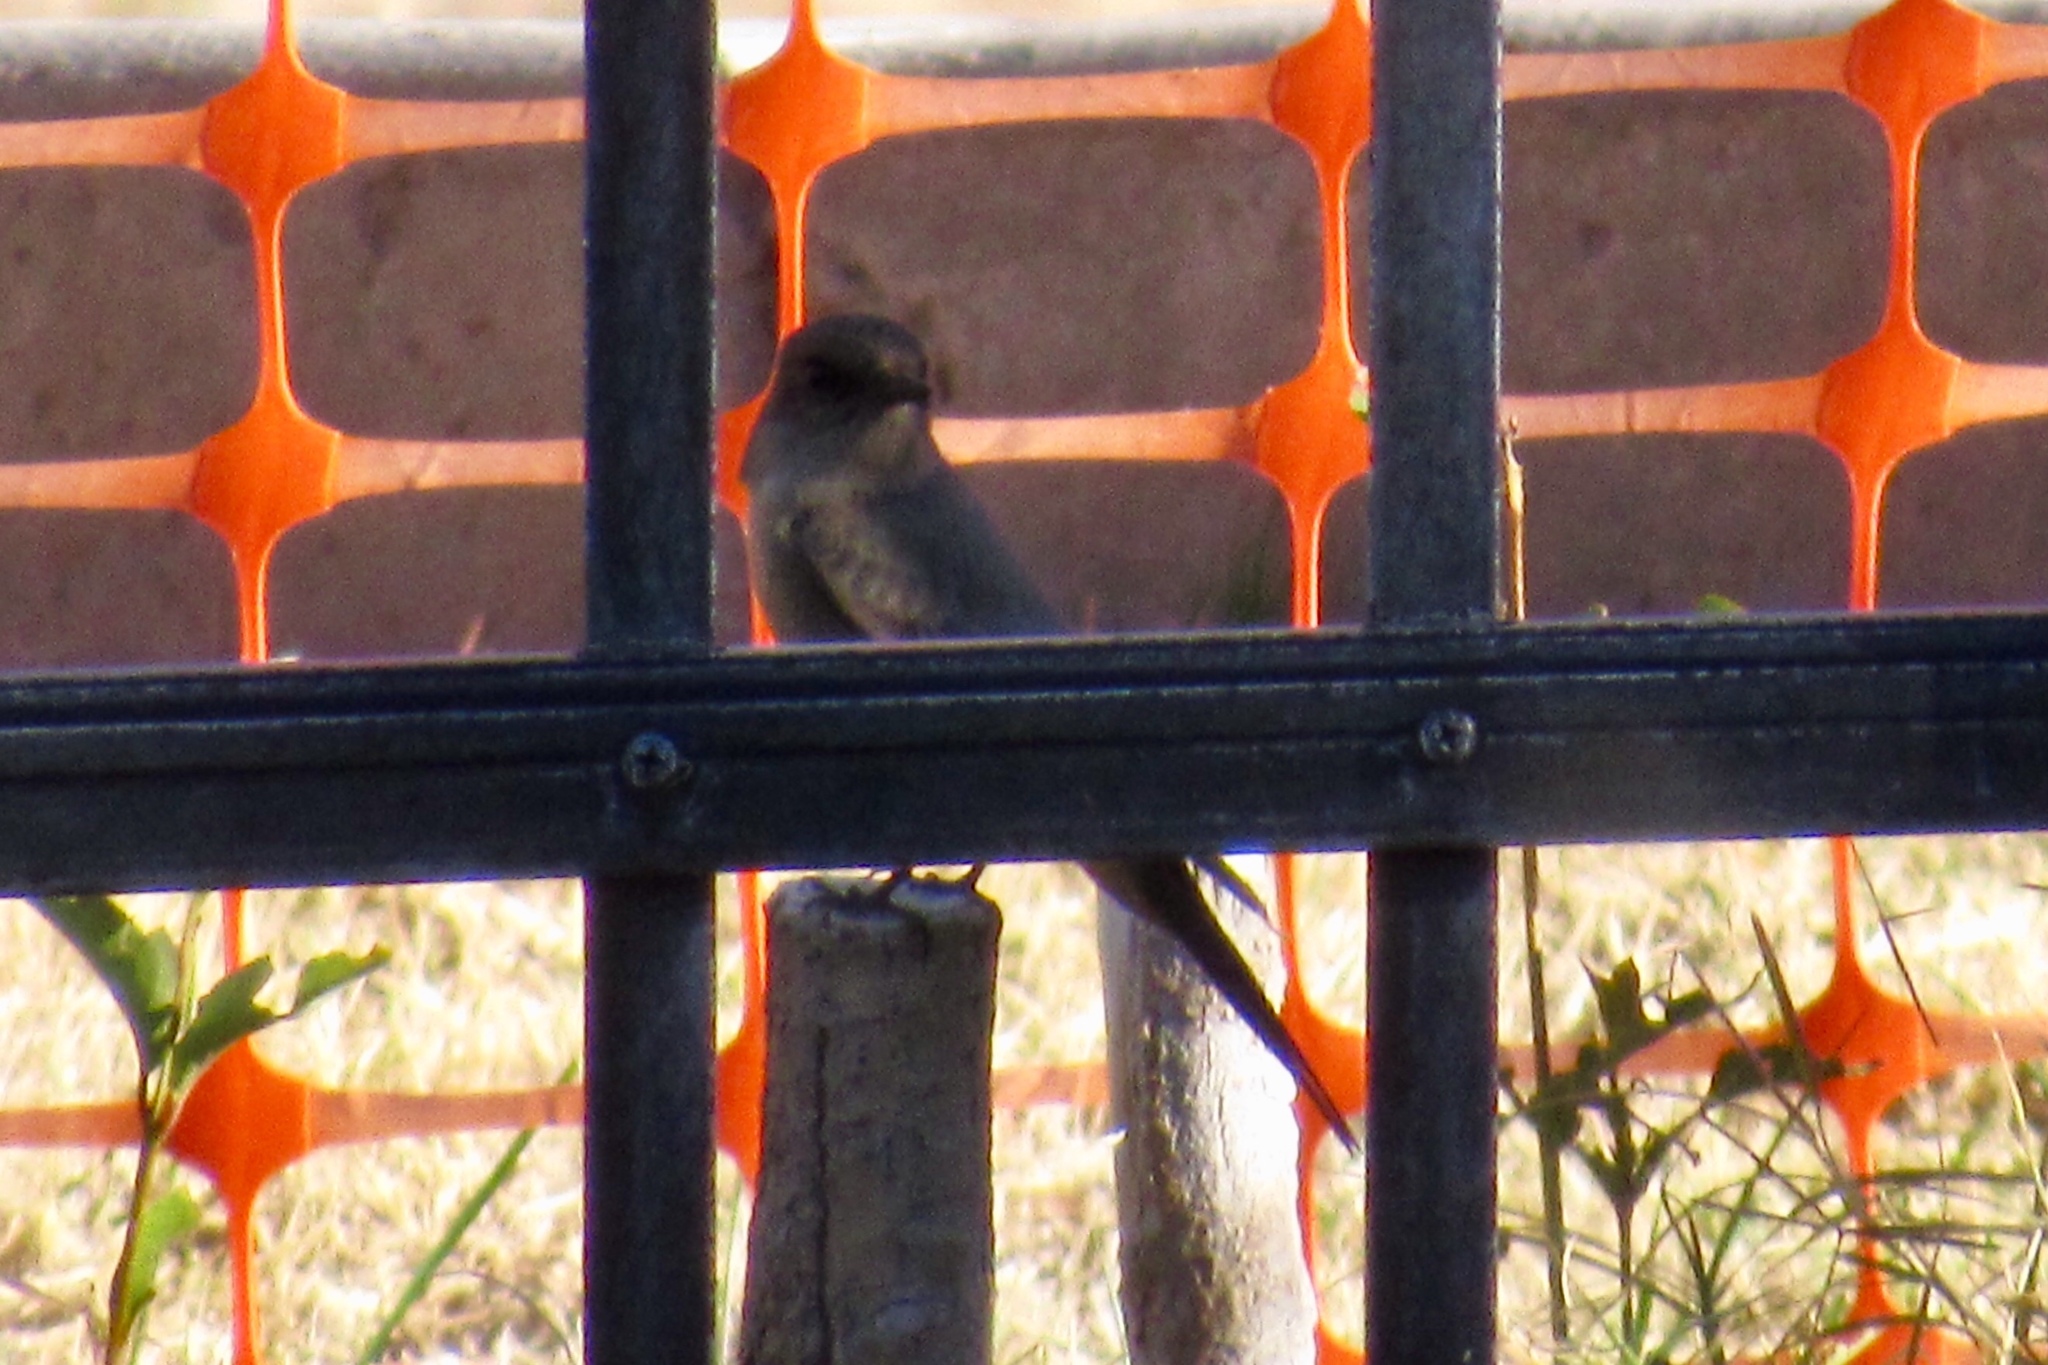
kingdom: Animalia
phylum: Chordata
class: Aves
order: Passeriformes
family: Tyrannidae
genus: Sayornis
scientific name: Sayornis saya
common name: Say's phoebe
